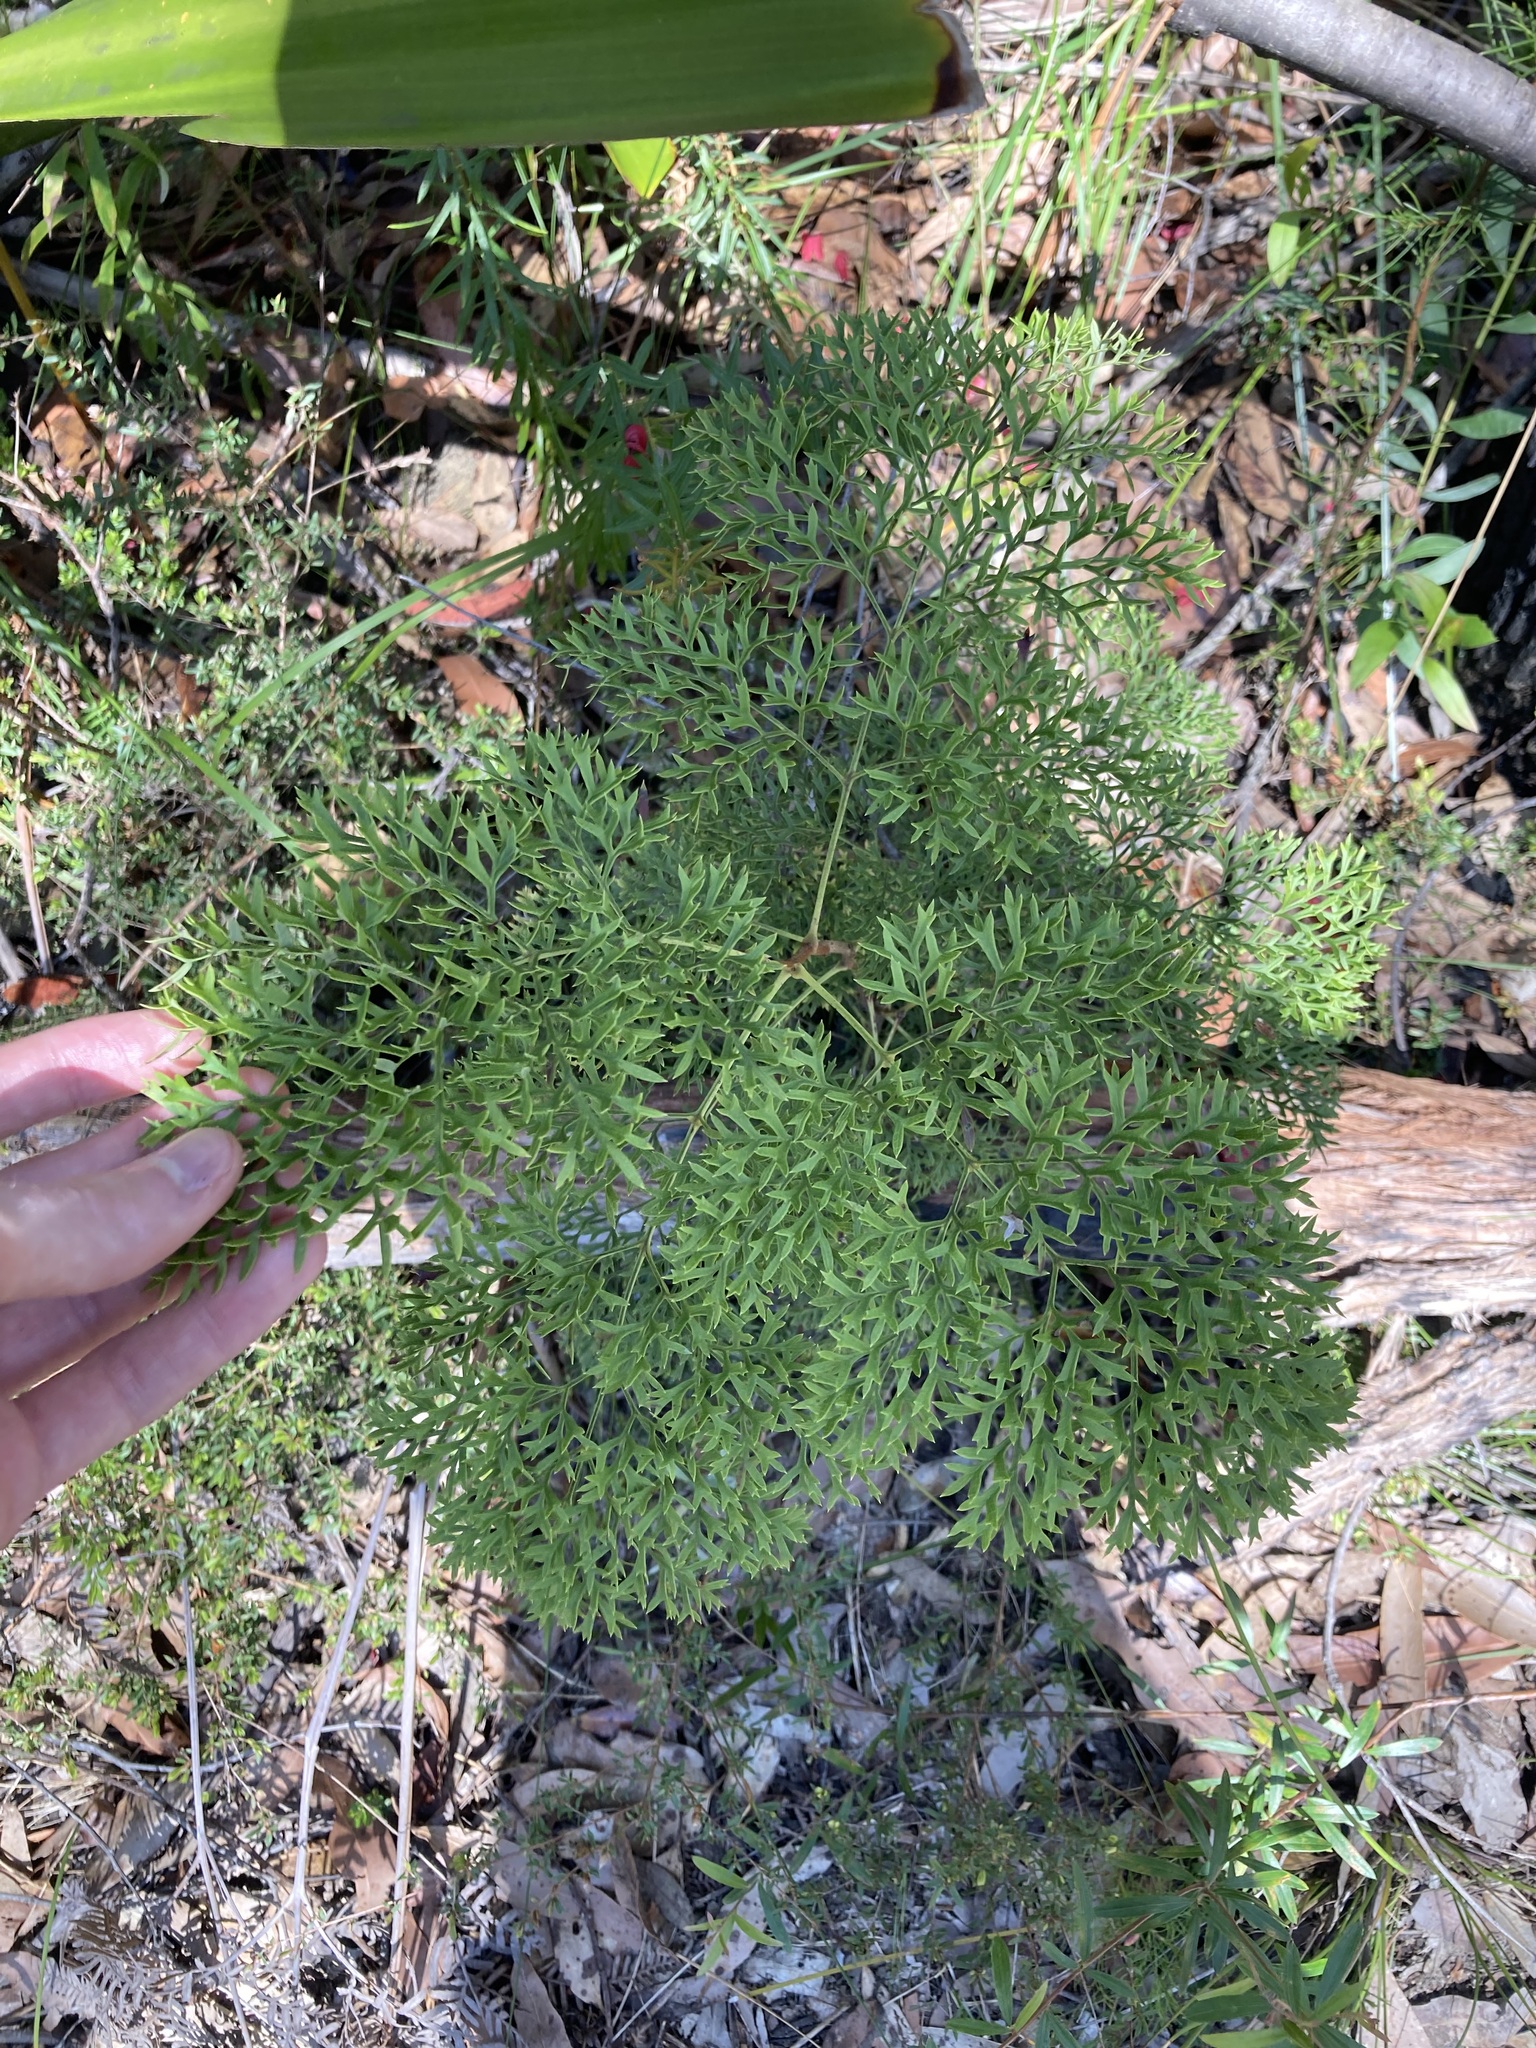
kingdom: Plantae
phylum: Tracheophyta
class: Magnoliopsida
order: Proteales
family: Proteaceae
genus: Lomatia
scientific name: Lomatia silaifolia
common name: Crinklebush
